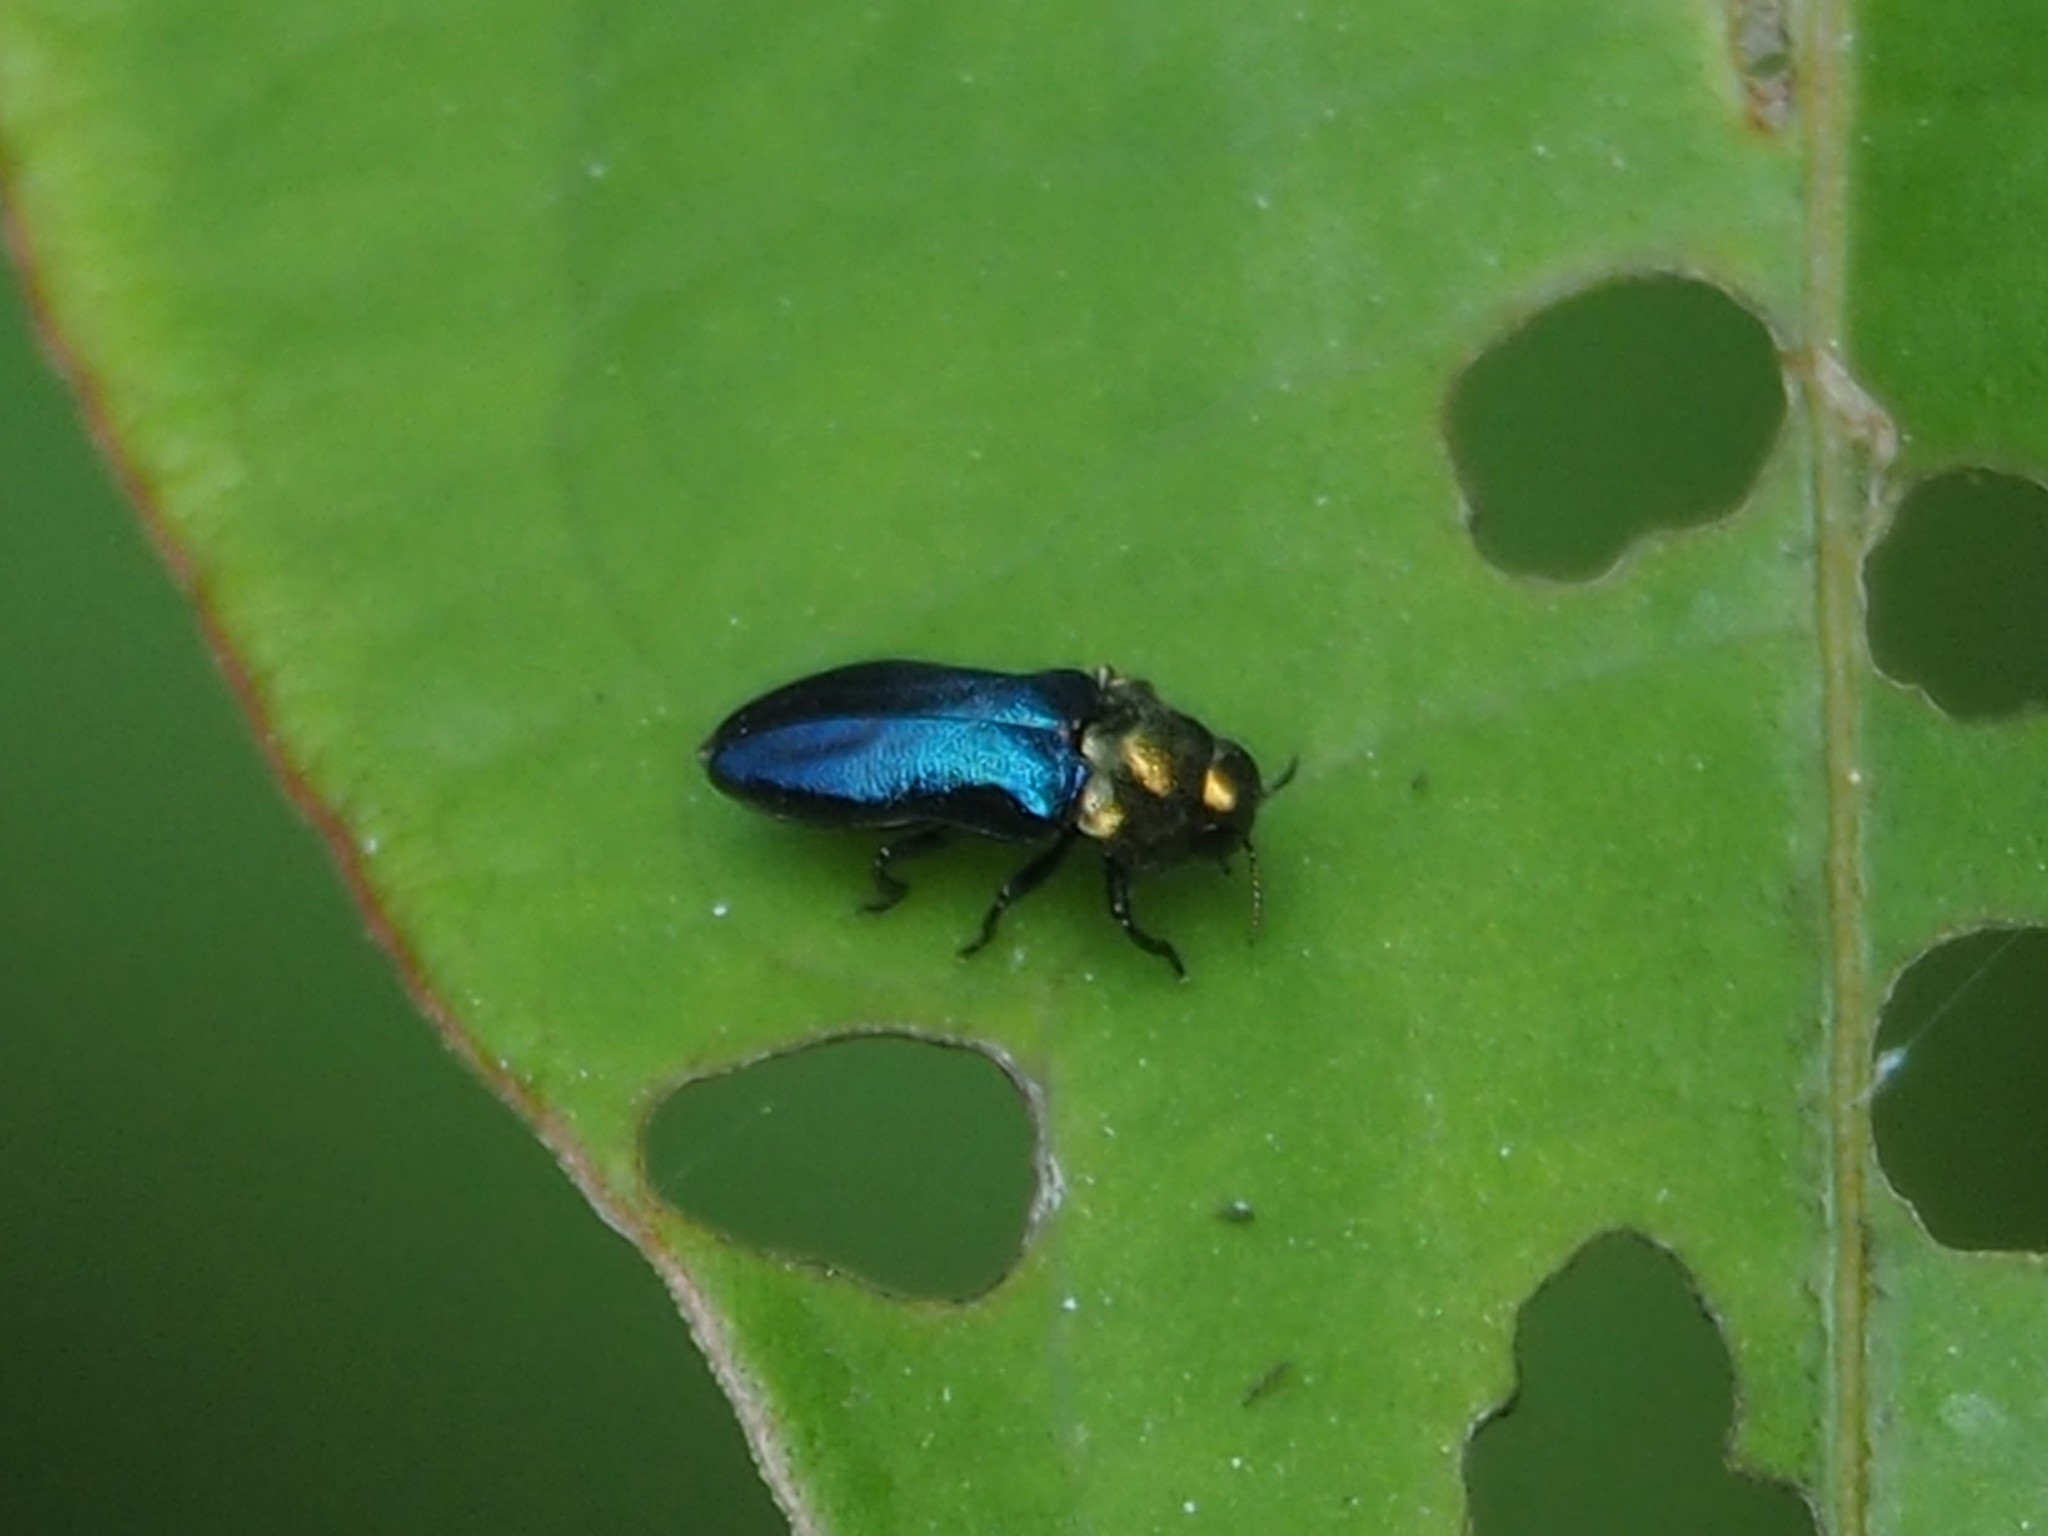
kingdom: Animalia
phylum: Arthropoda
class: Insecta
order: Coleoptera
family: Buprestidae
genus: Nalanda
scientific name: Nalanda formosana
